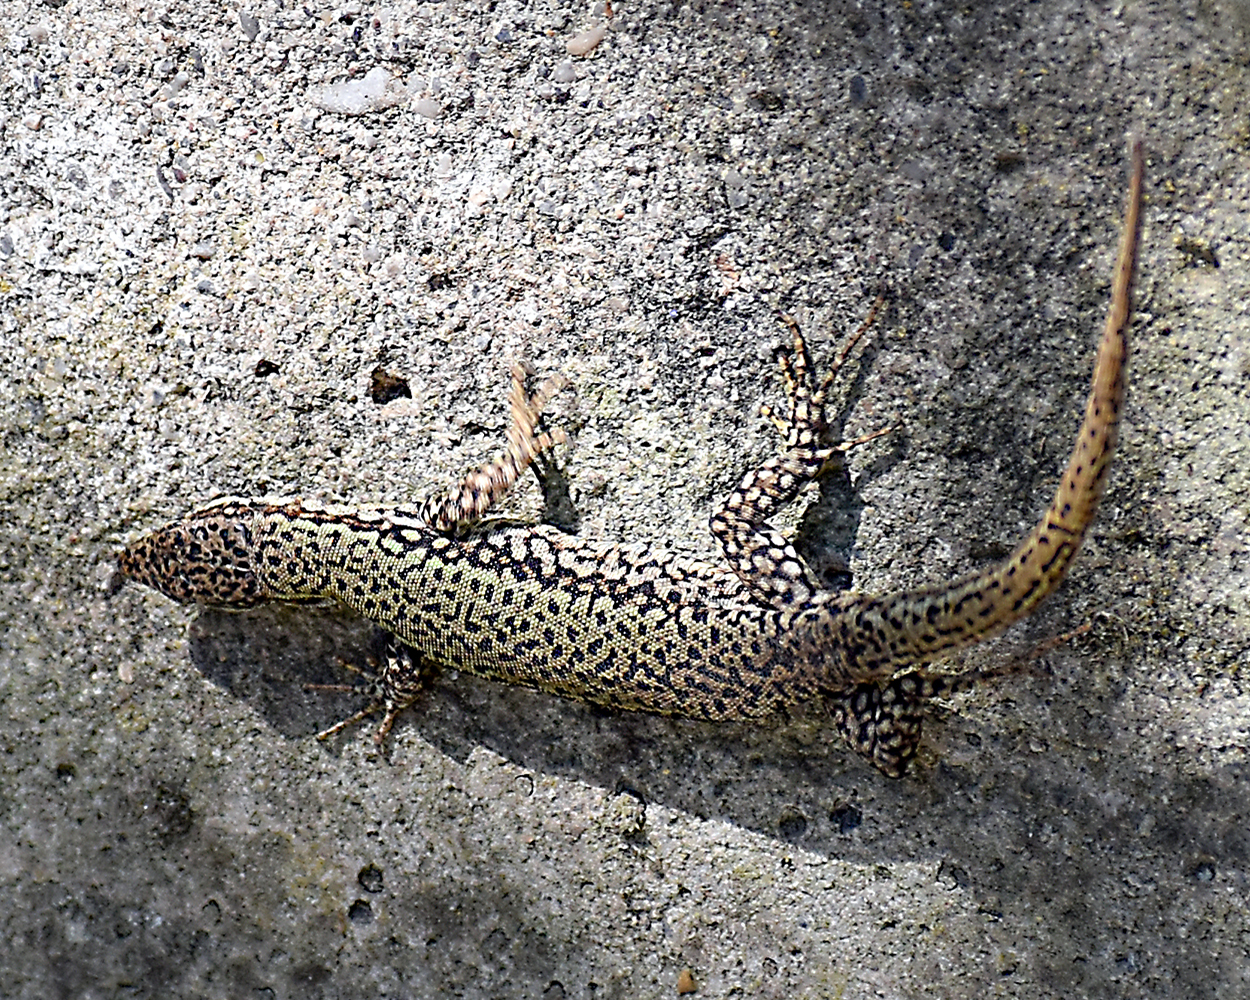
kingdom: Animalia
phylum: Chordata
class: Squamata
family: Lacertidae
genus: Podarcis
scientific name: Podarcis muralis
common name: Common wall lizard
